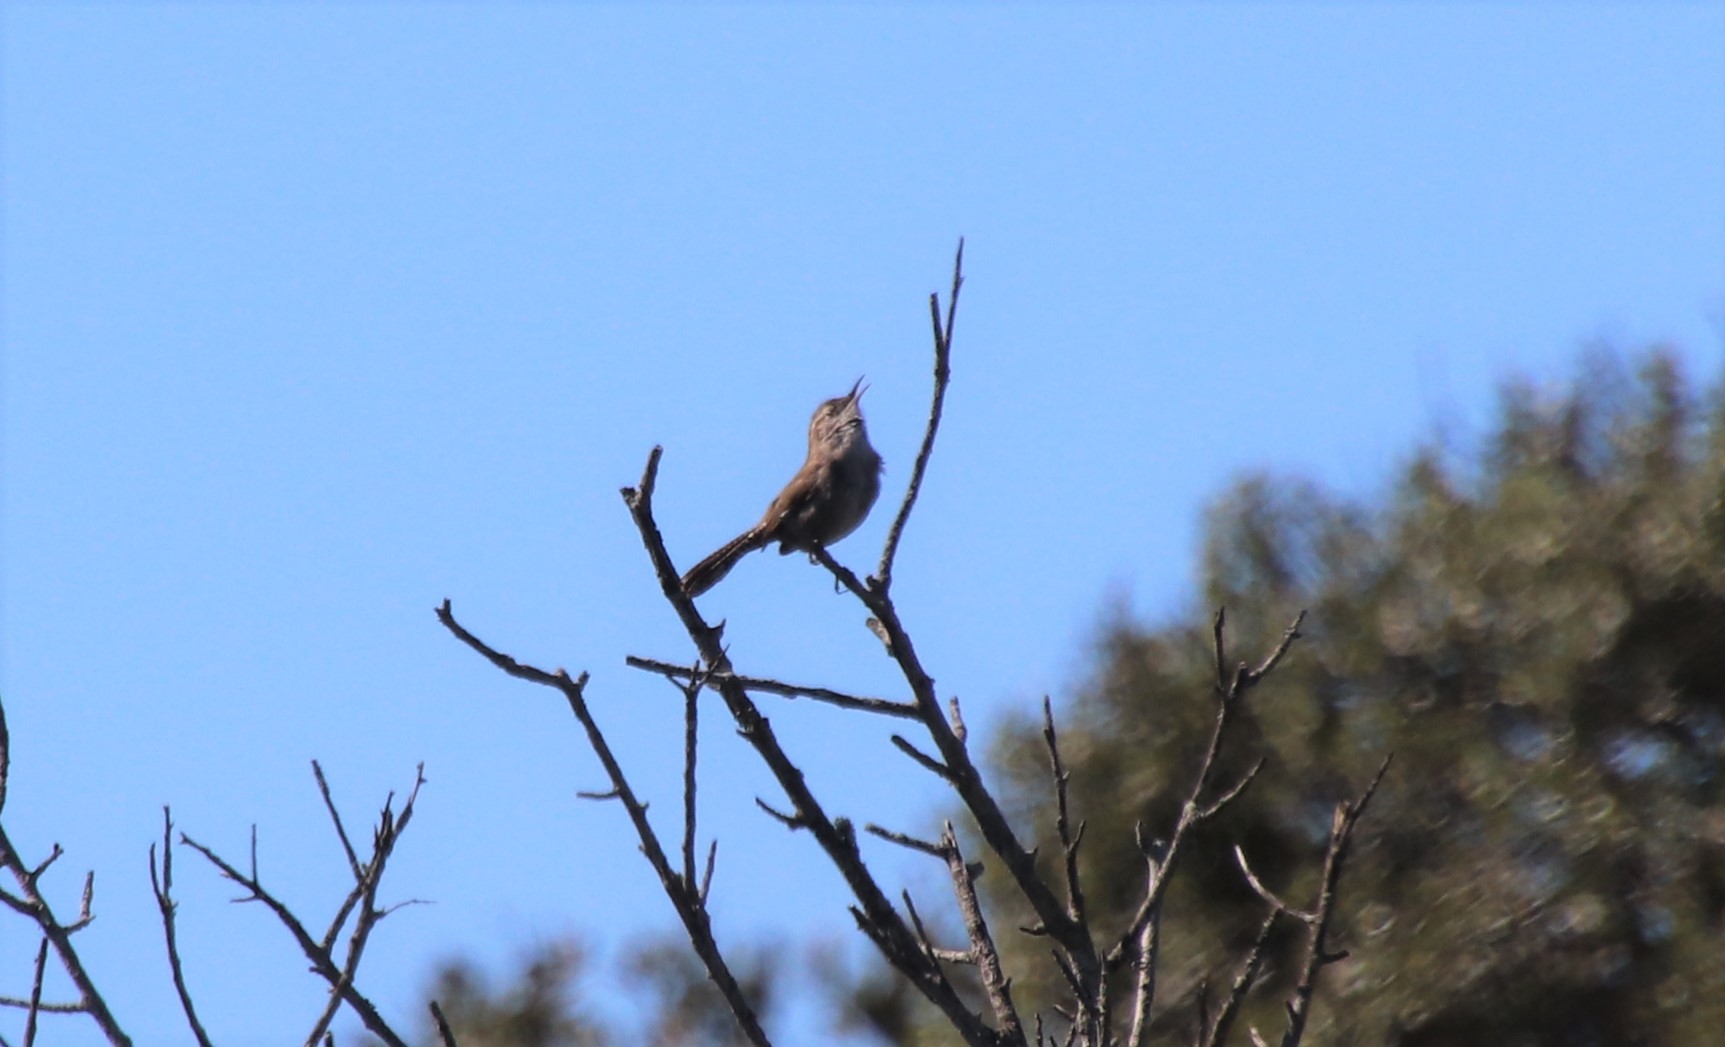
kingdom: Animalia
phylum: Chordata
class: Aves
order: Passeriformes
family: Troglodytidae
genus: Thryomanes
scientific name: Thryomanes bewickii
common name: Bewick's wren
